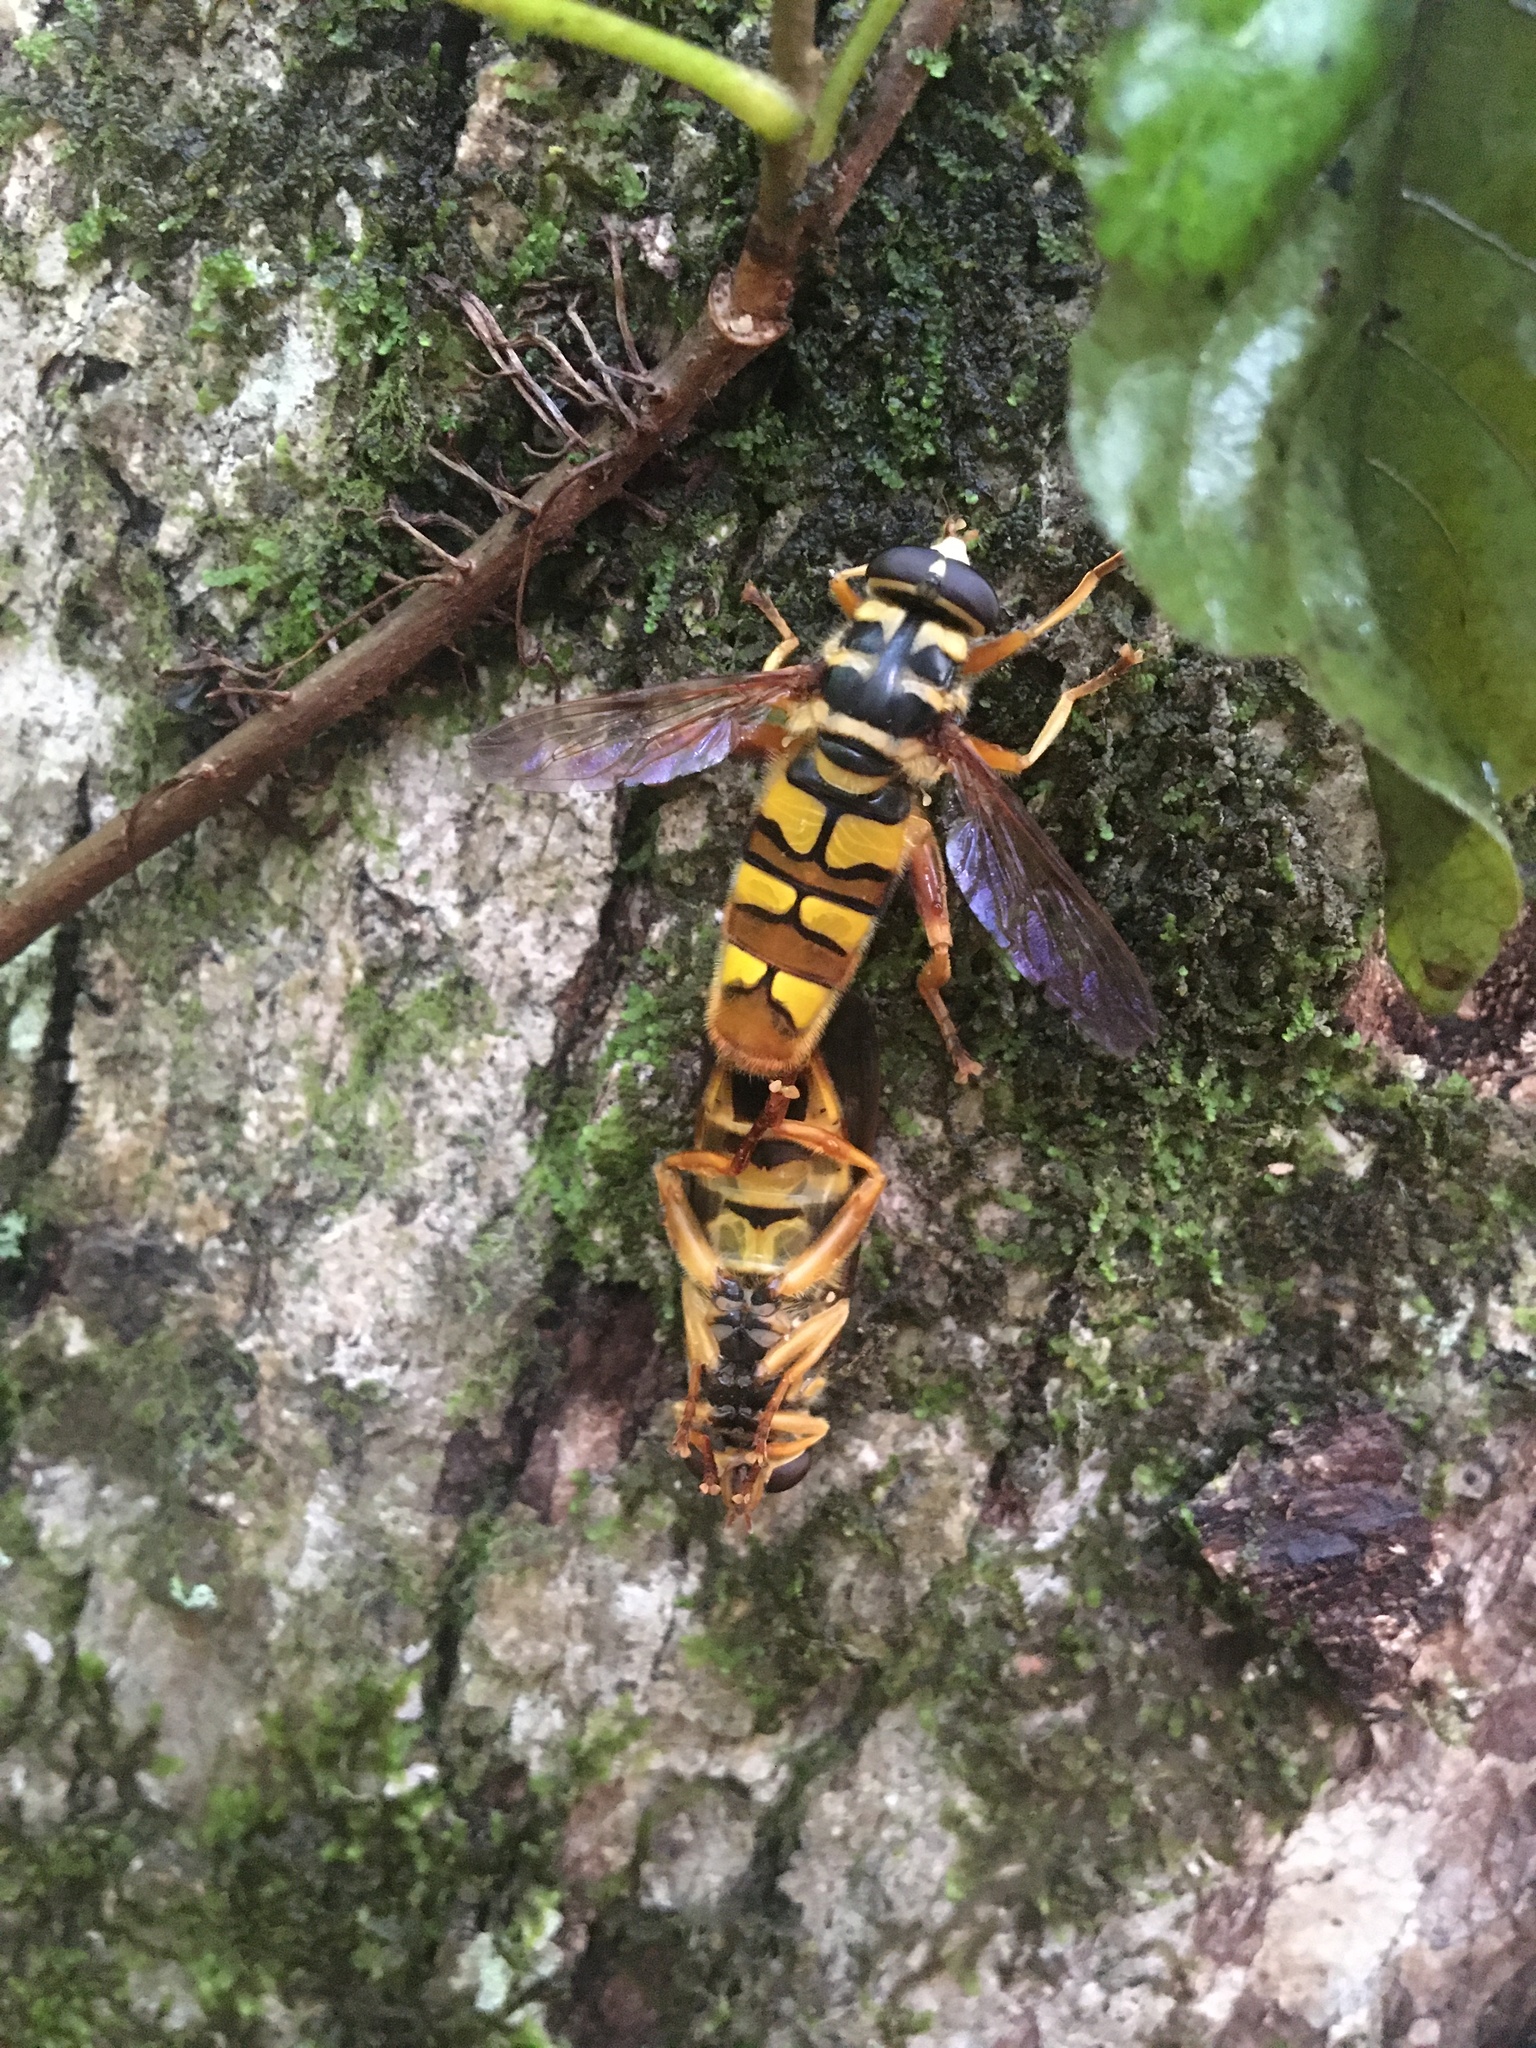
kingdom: Animalia
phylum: Arthropoda
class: Insecta
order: Diptera
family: Syrphidae
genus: Milesia
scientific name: Milesia virginiensis
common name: Virginia giant
